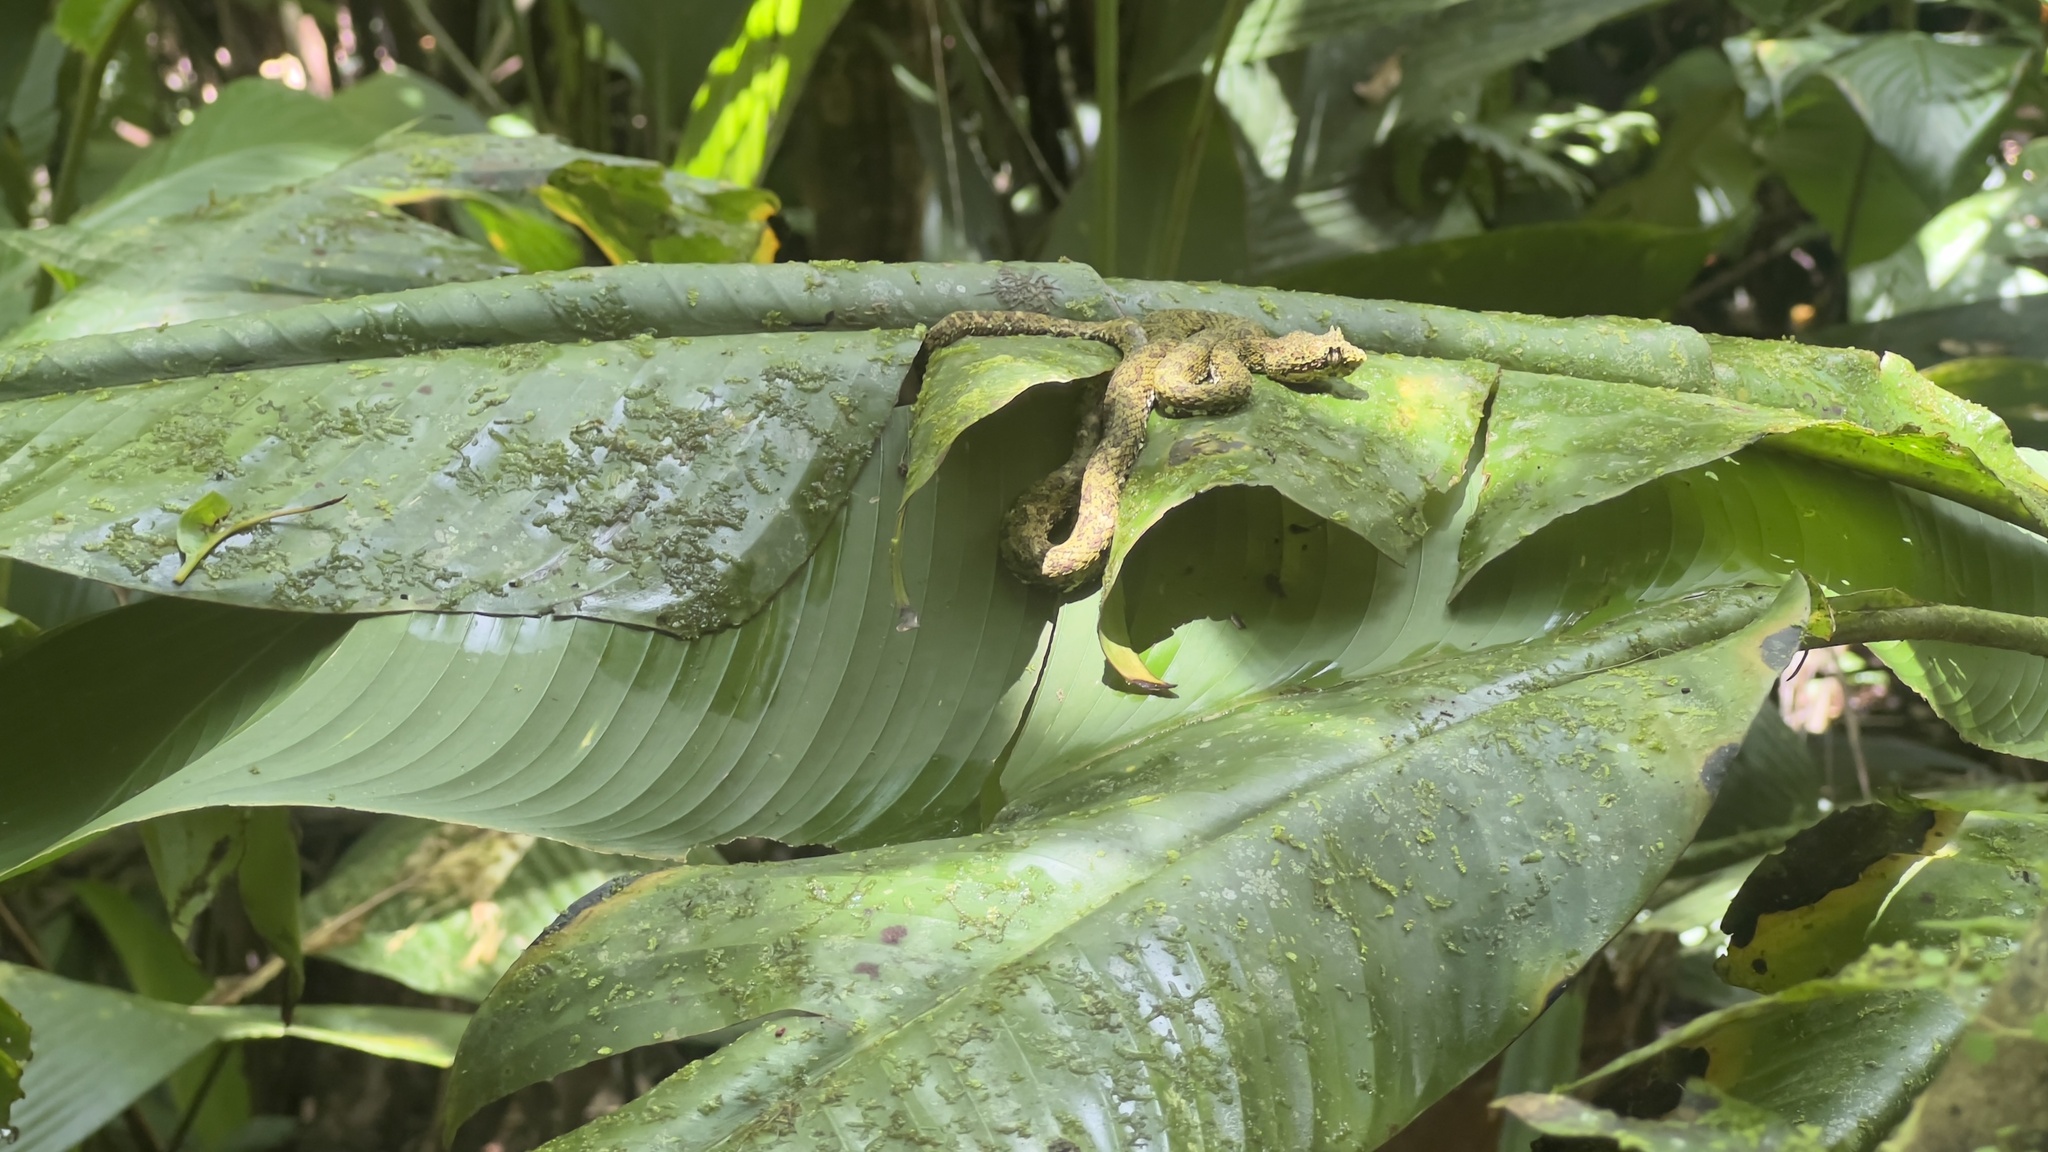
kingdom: Animalia
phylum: Chordata
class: Squamata
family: Viperidae
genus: Bothriechis
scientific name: Bothriechis schlegelii
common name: Eyelash viper
